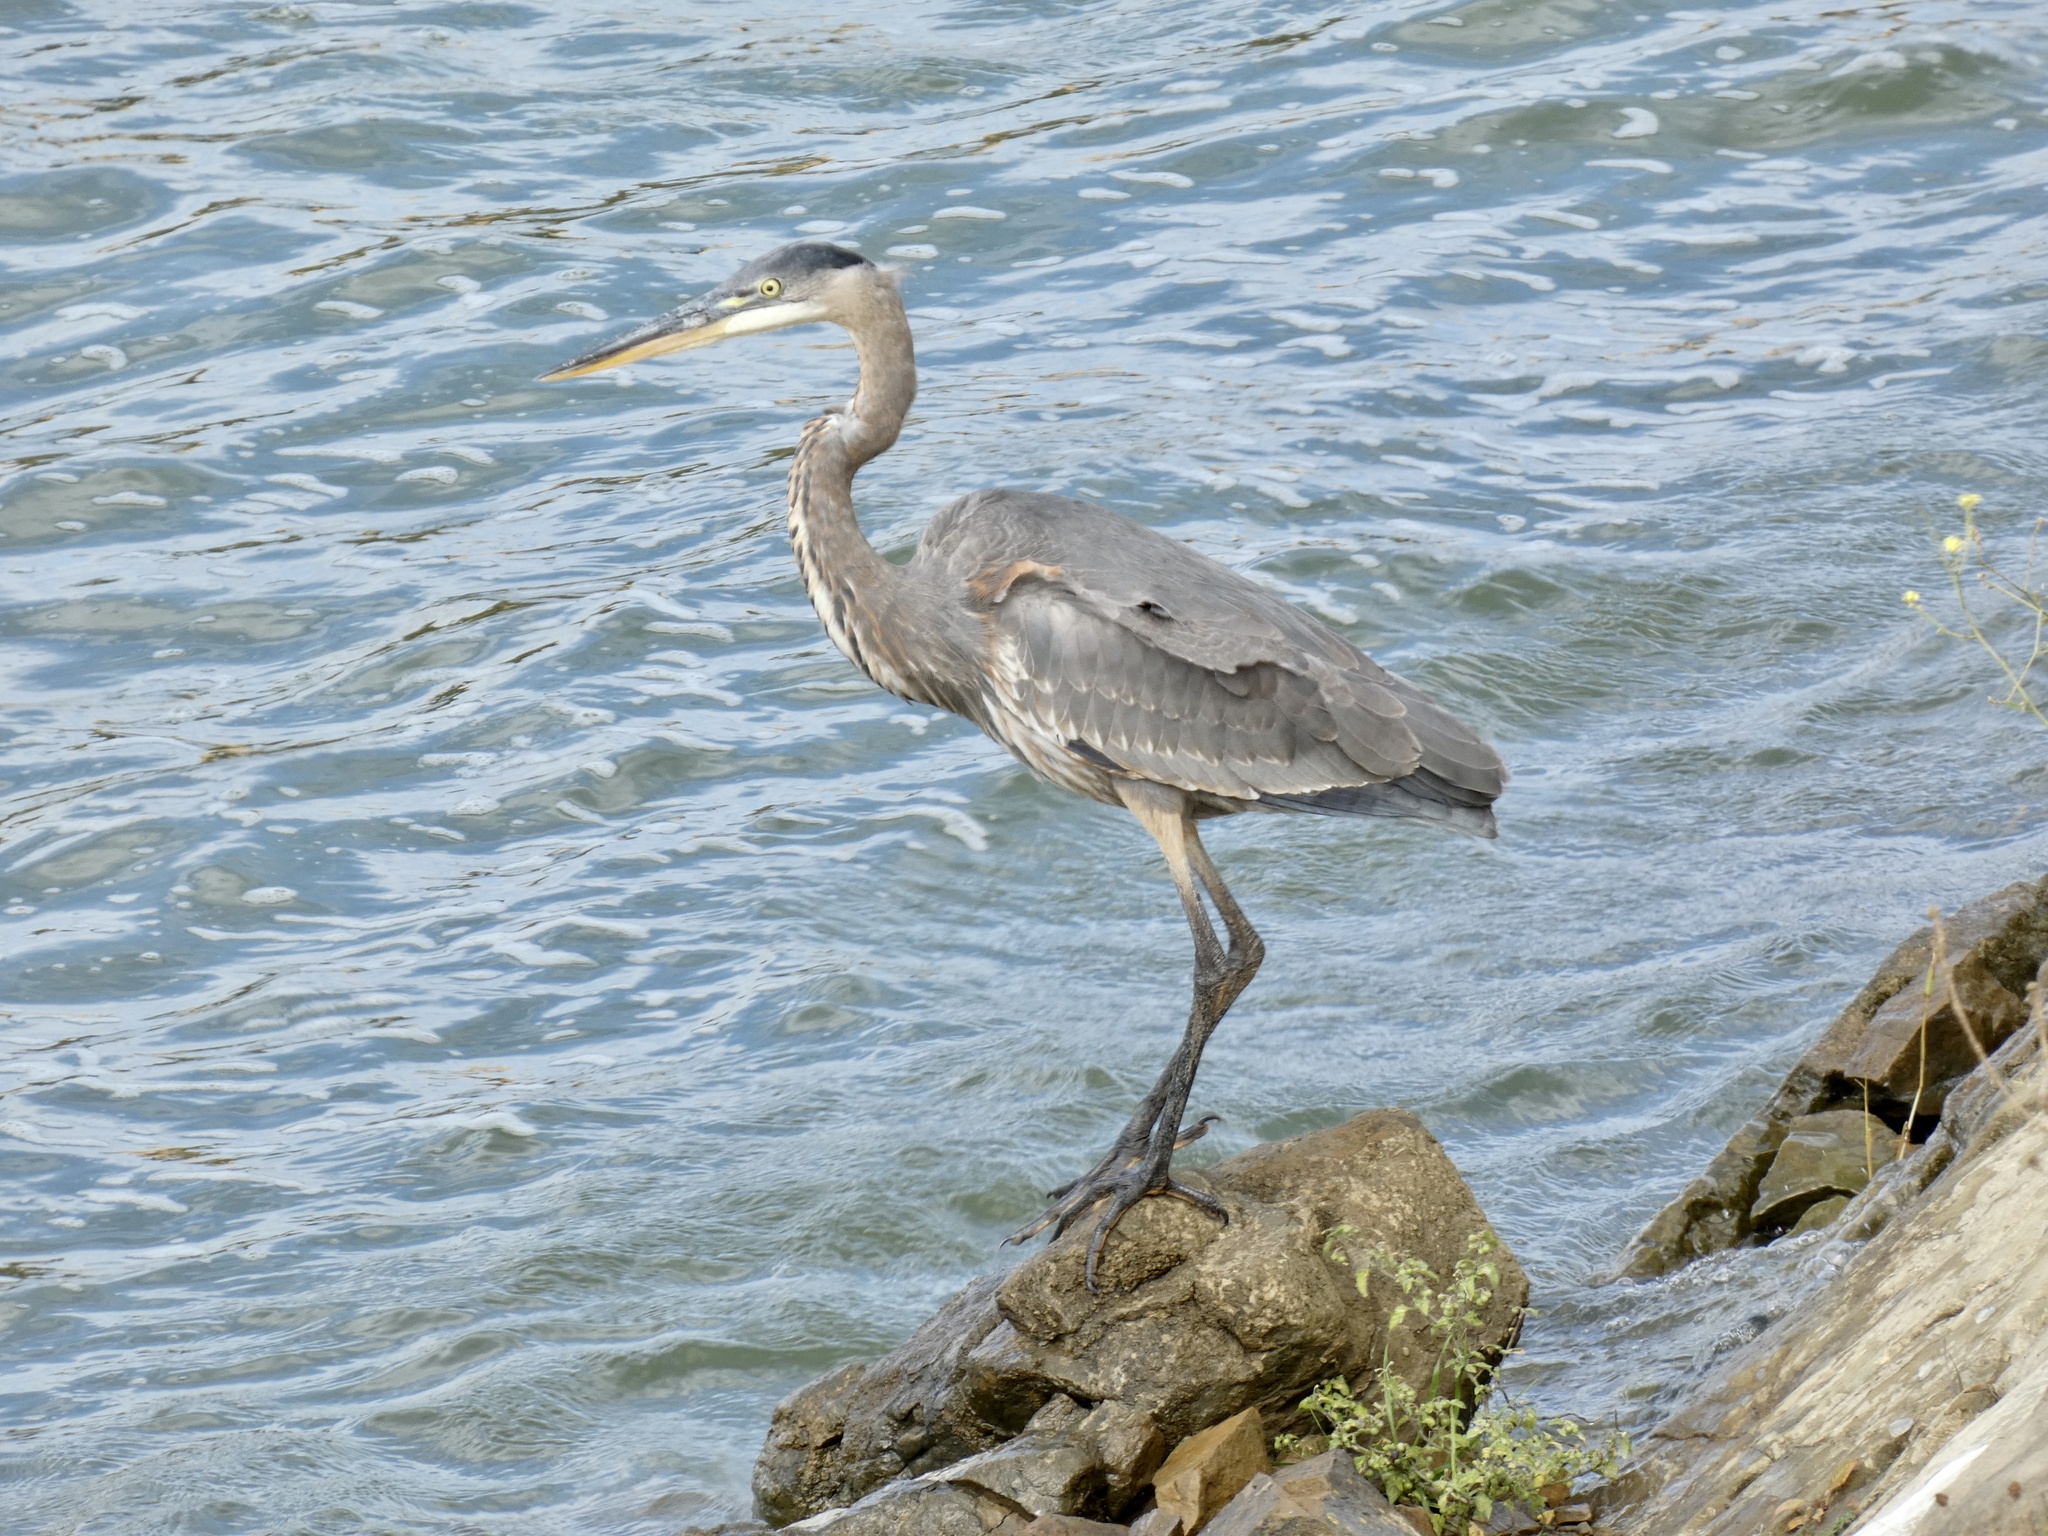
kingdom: Animalia
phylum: Chordata
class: Aves
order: Pelecaniformes
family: Ardeidae
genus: Ardea
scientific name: Ardea herodias
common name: Great blue heron
